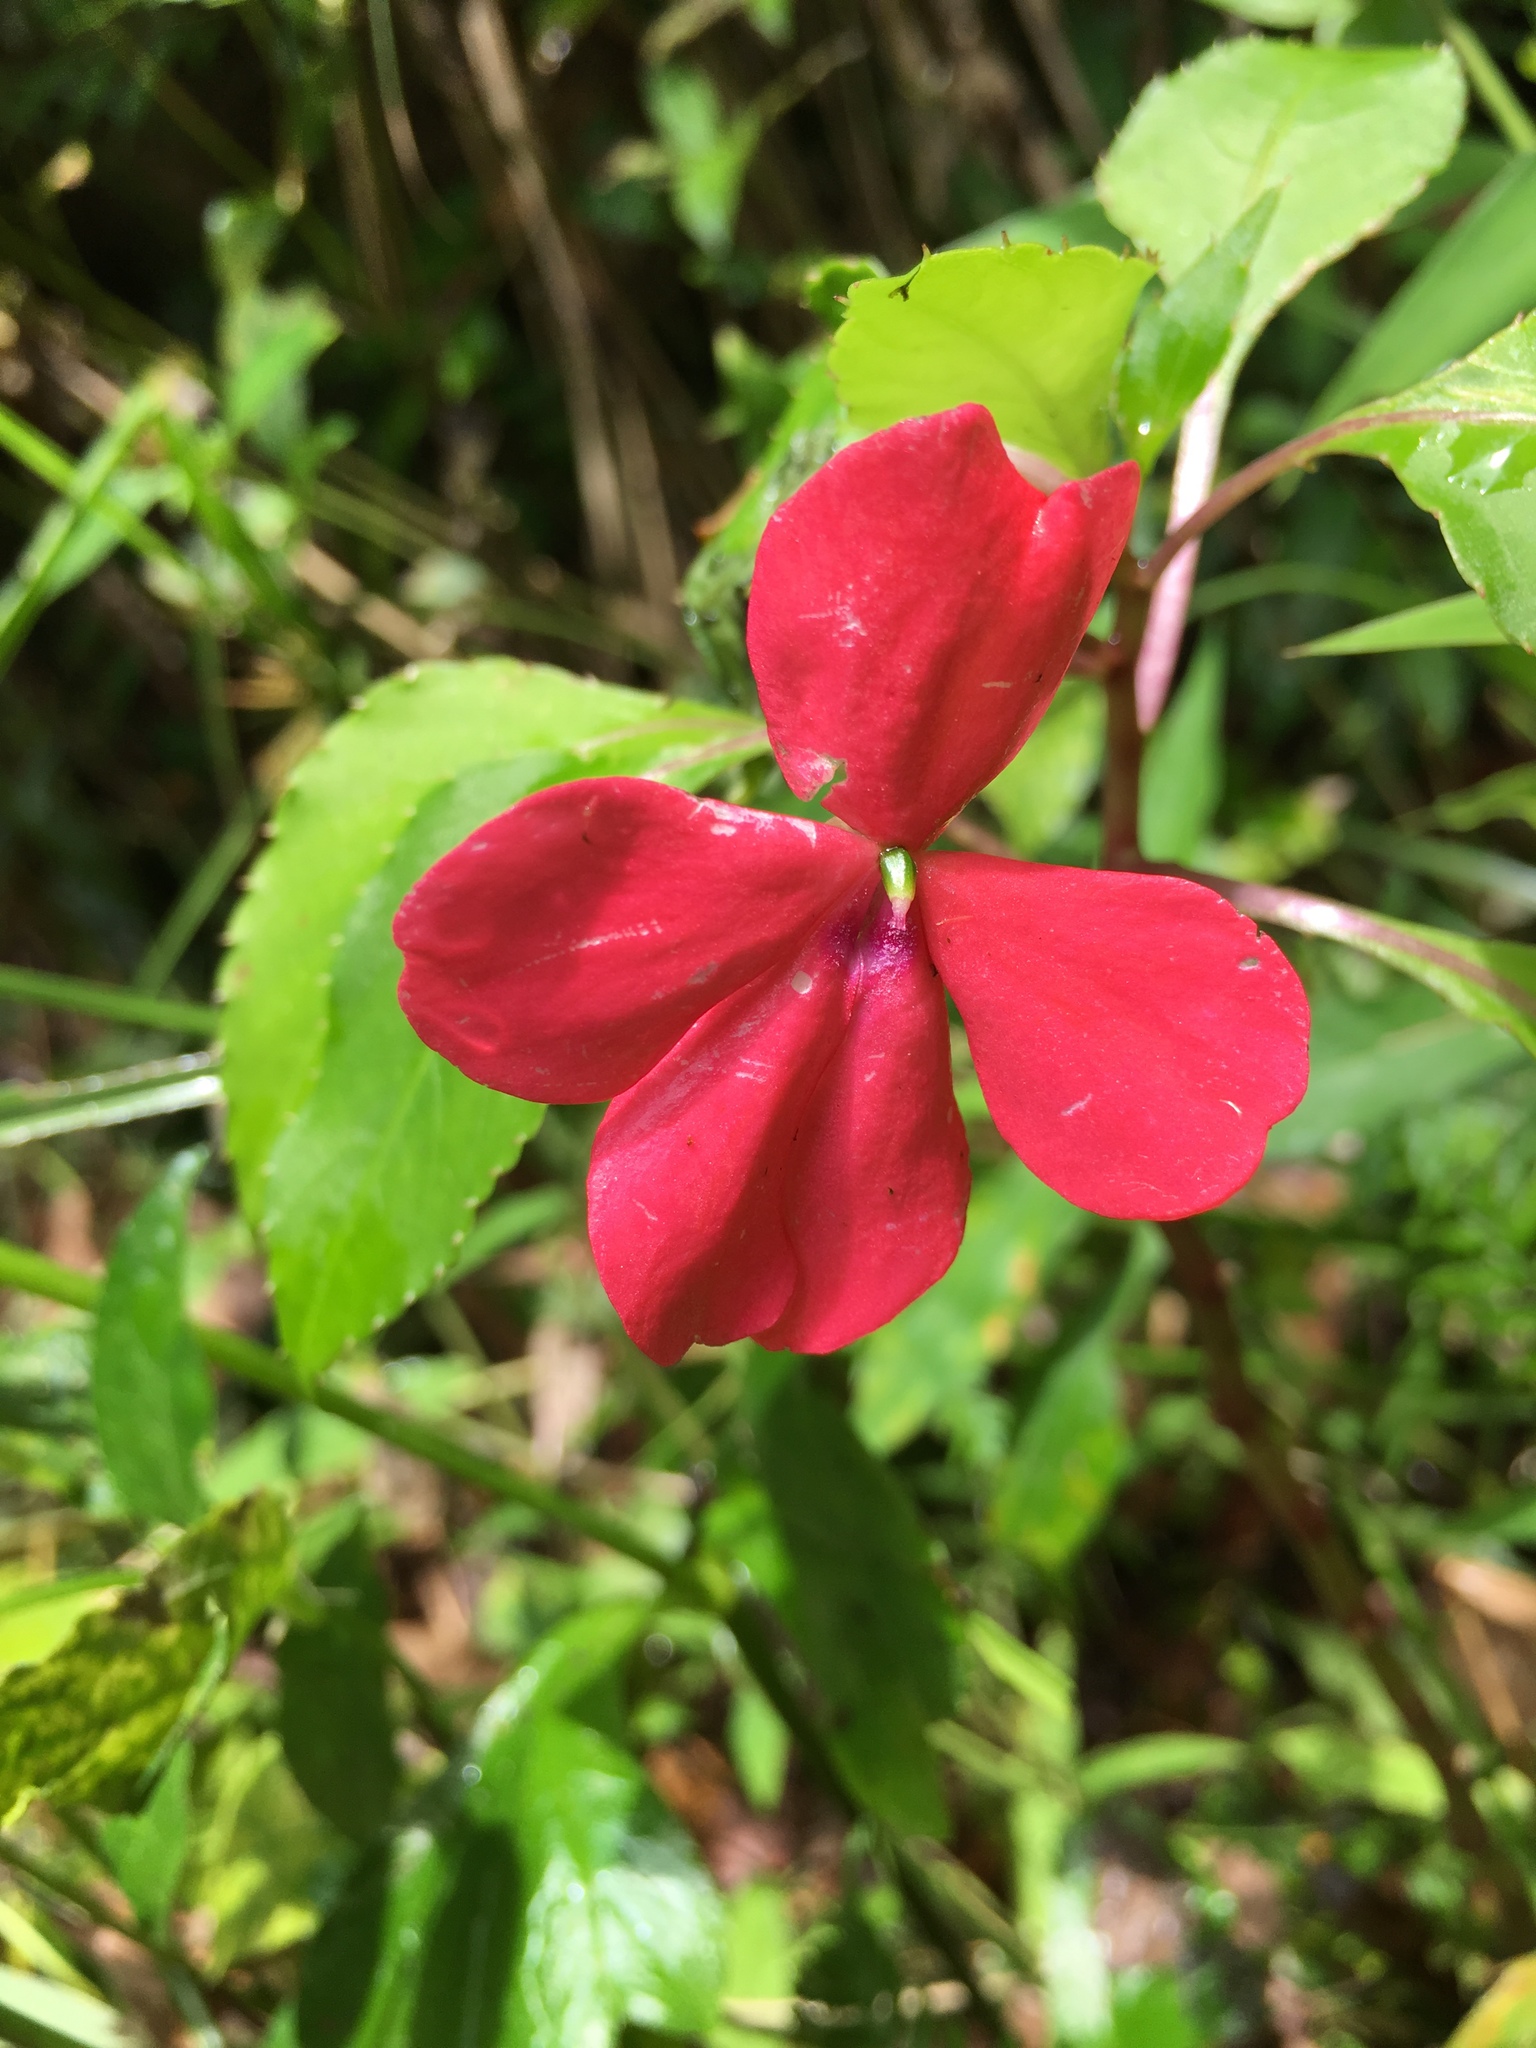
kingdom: Plantae
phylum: Tracheophyta
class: Magnoliopsida
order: Ericales
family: Balsaminaceae
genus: Impatiens
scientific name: Impatiens walleriana
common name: Buzzy lizzy
